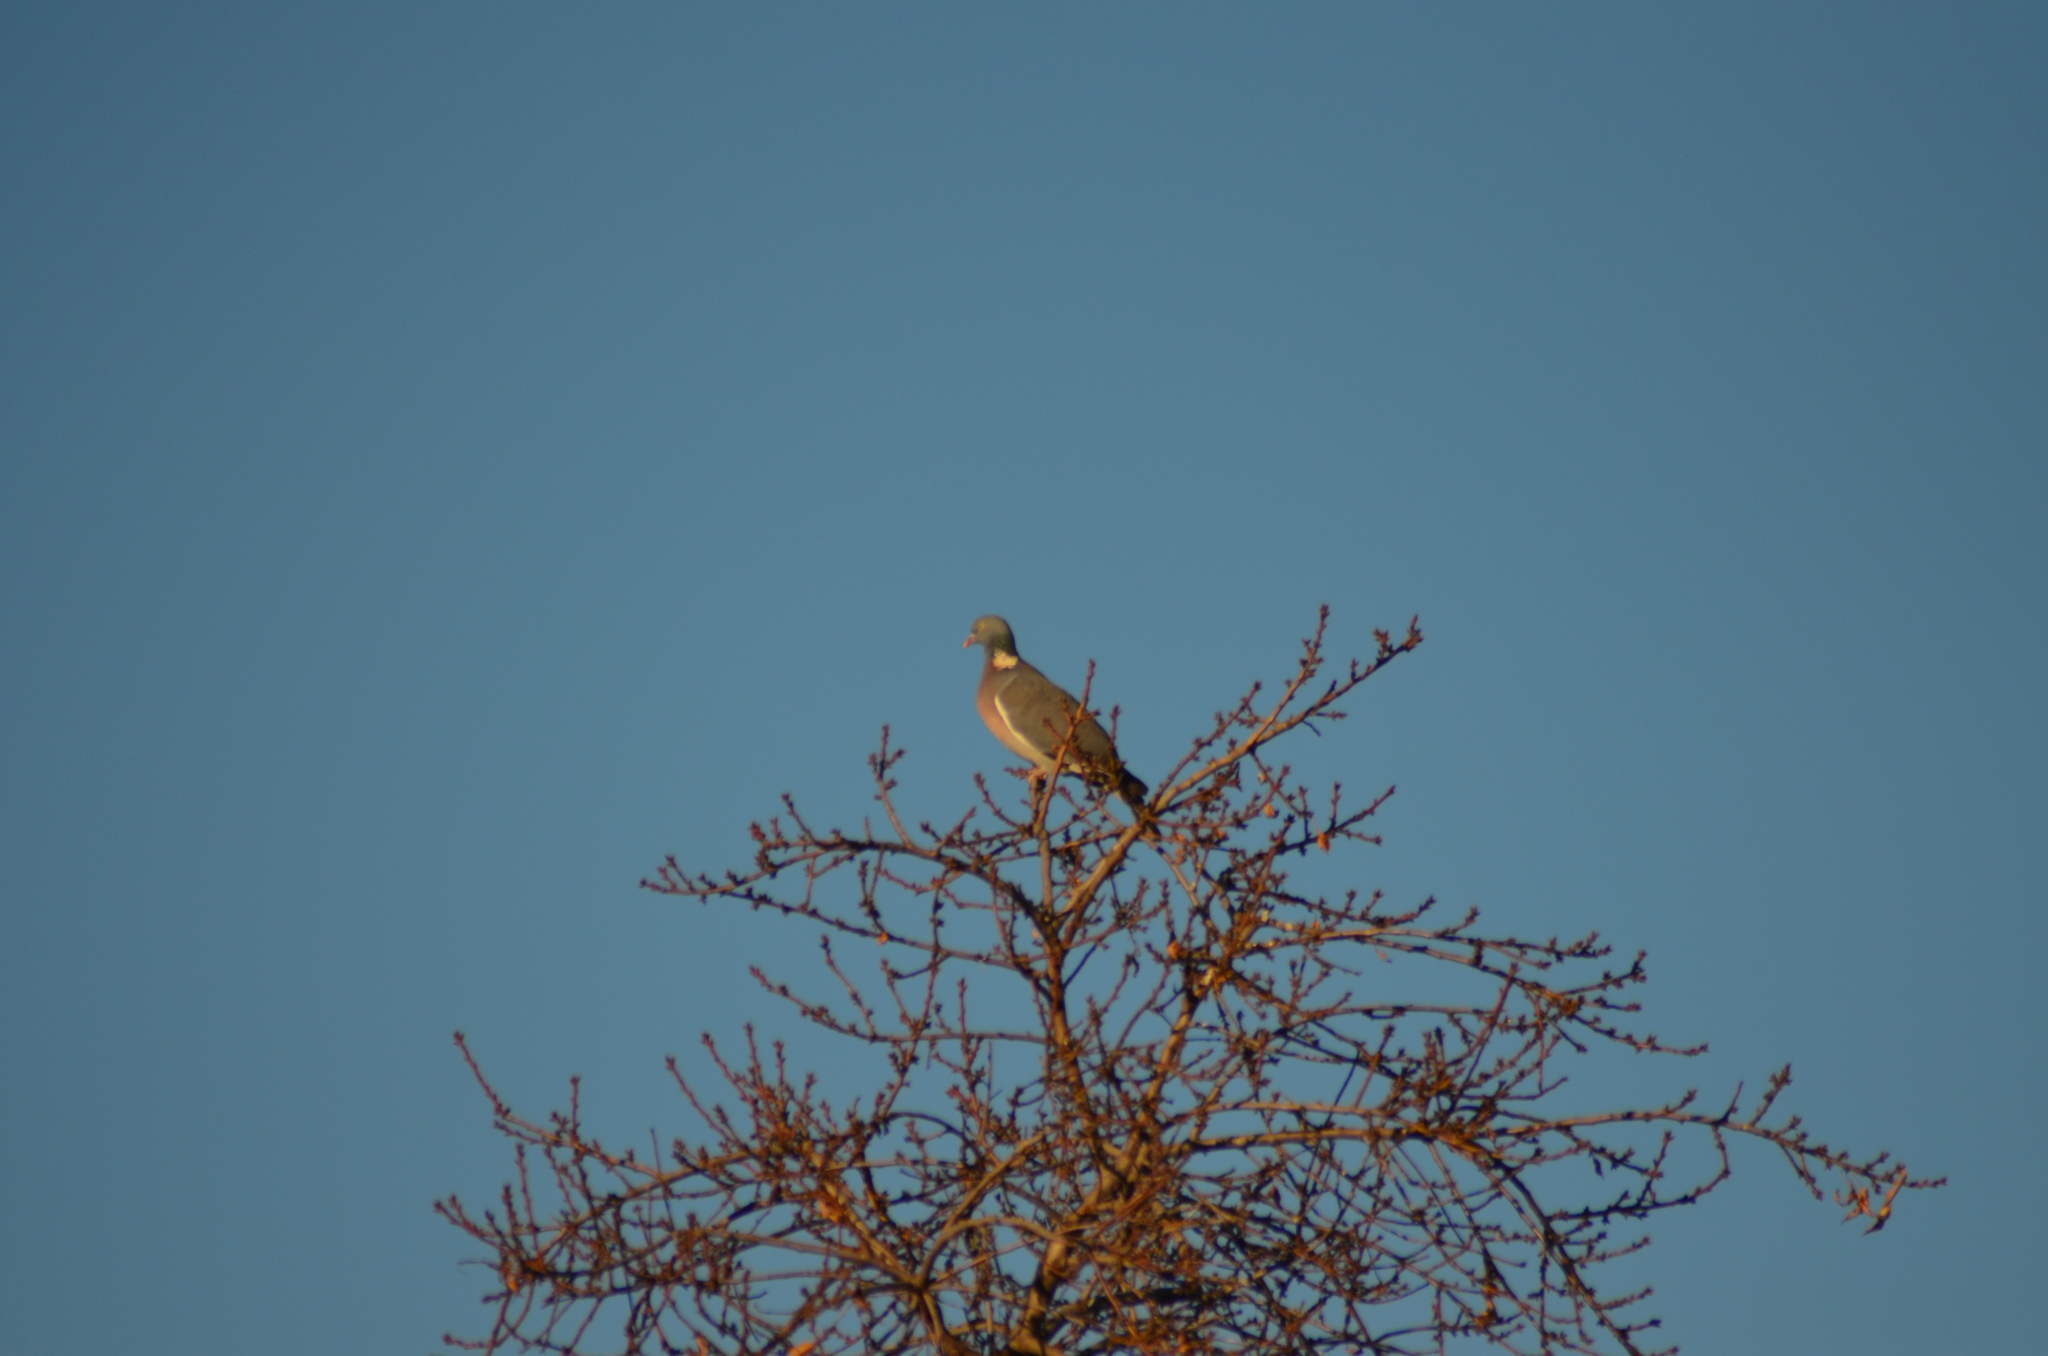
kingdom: Animalia
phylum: Chordata
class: Aves
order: Columbiformes
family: Columbidae
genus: Columba
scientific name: Columba palumbus
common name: Common wood pigeon
